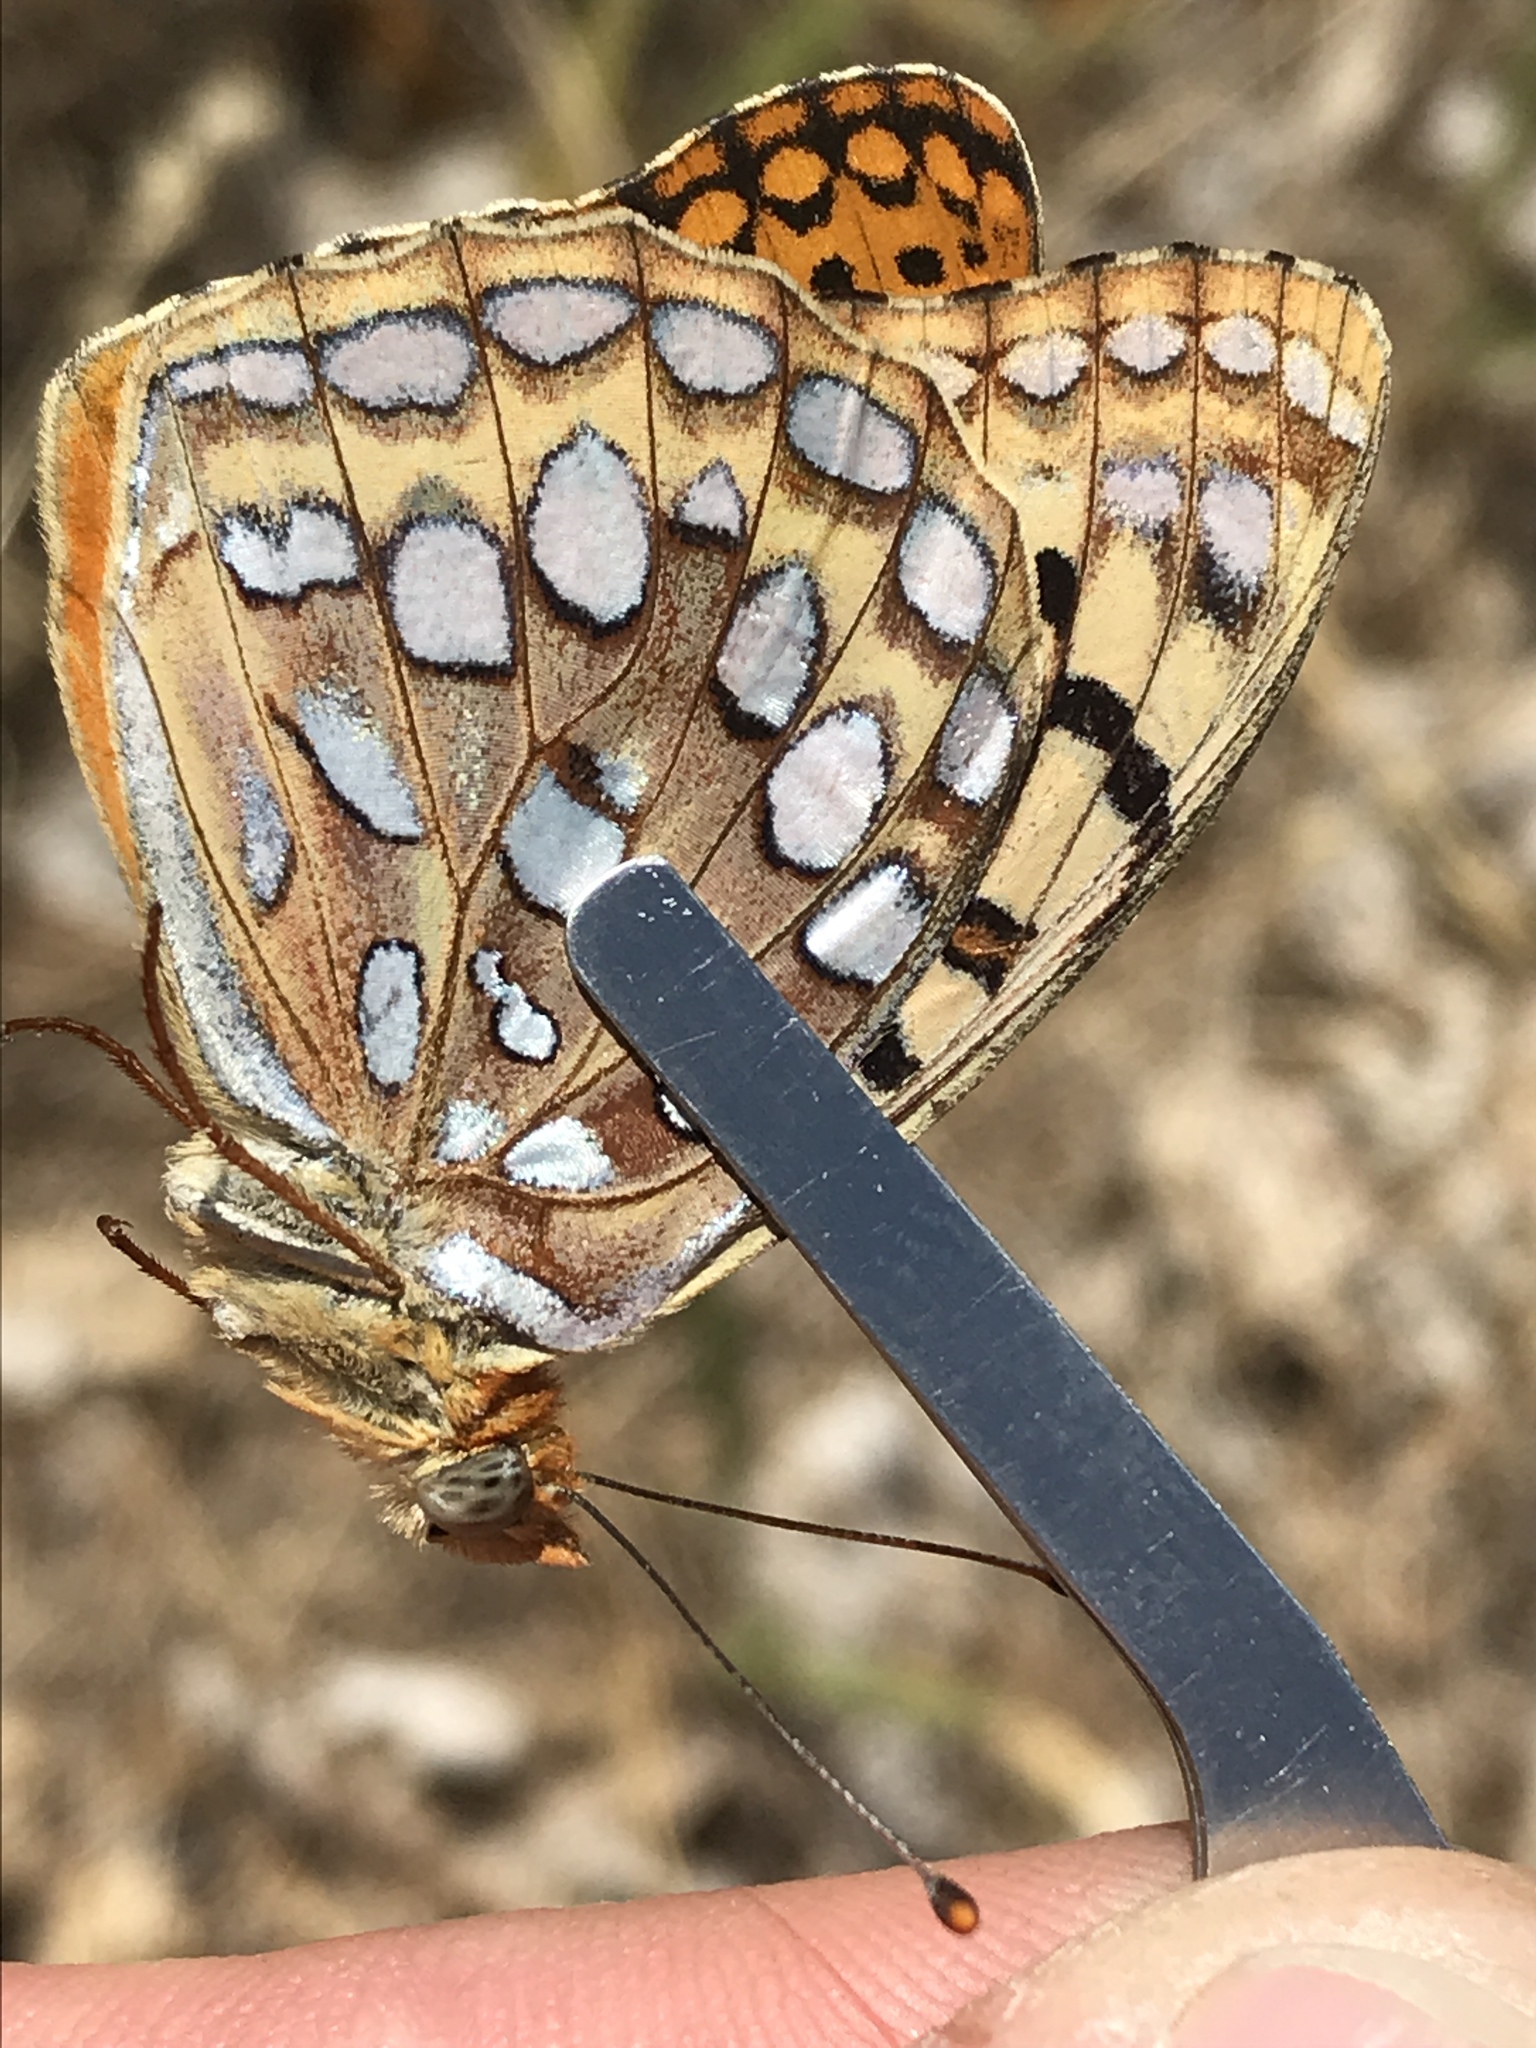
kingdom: Animalia
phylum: Arthropoda
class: Insecta
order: Lepidoptera
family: Nymphalidae
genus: Argynnis
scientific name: Argynnis coronis
